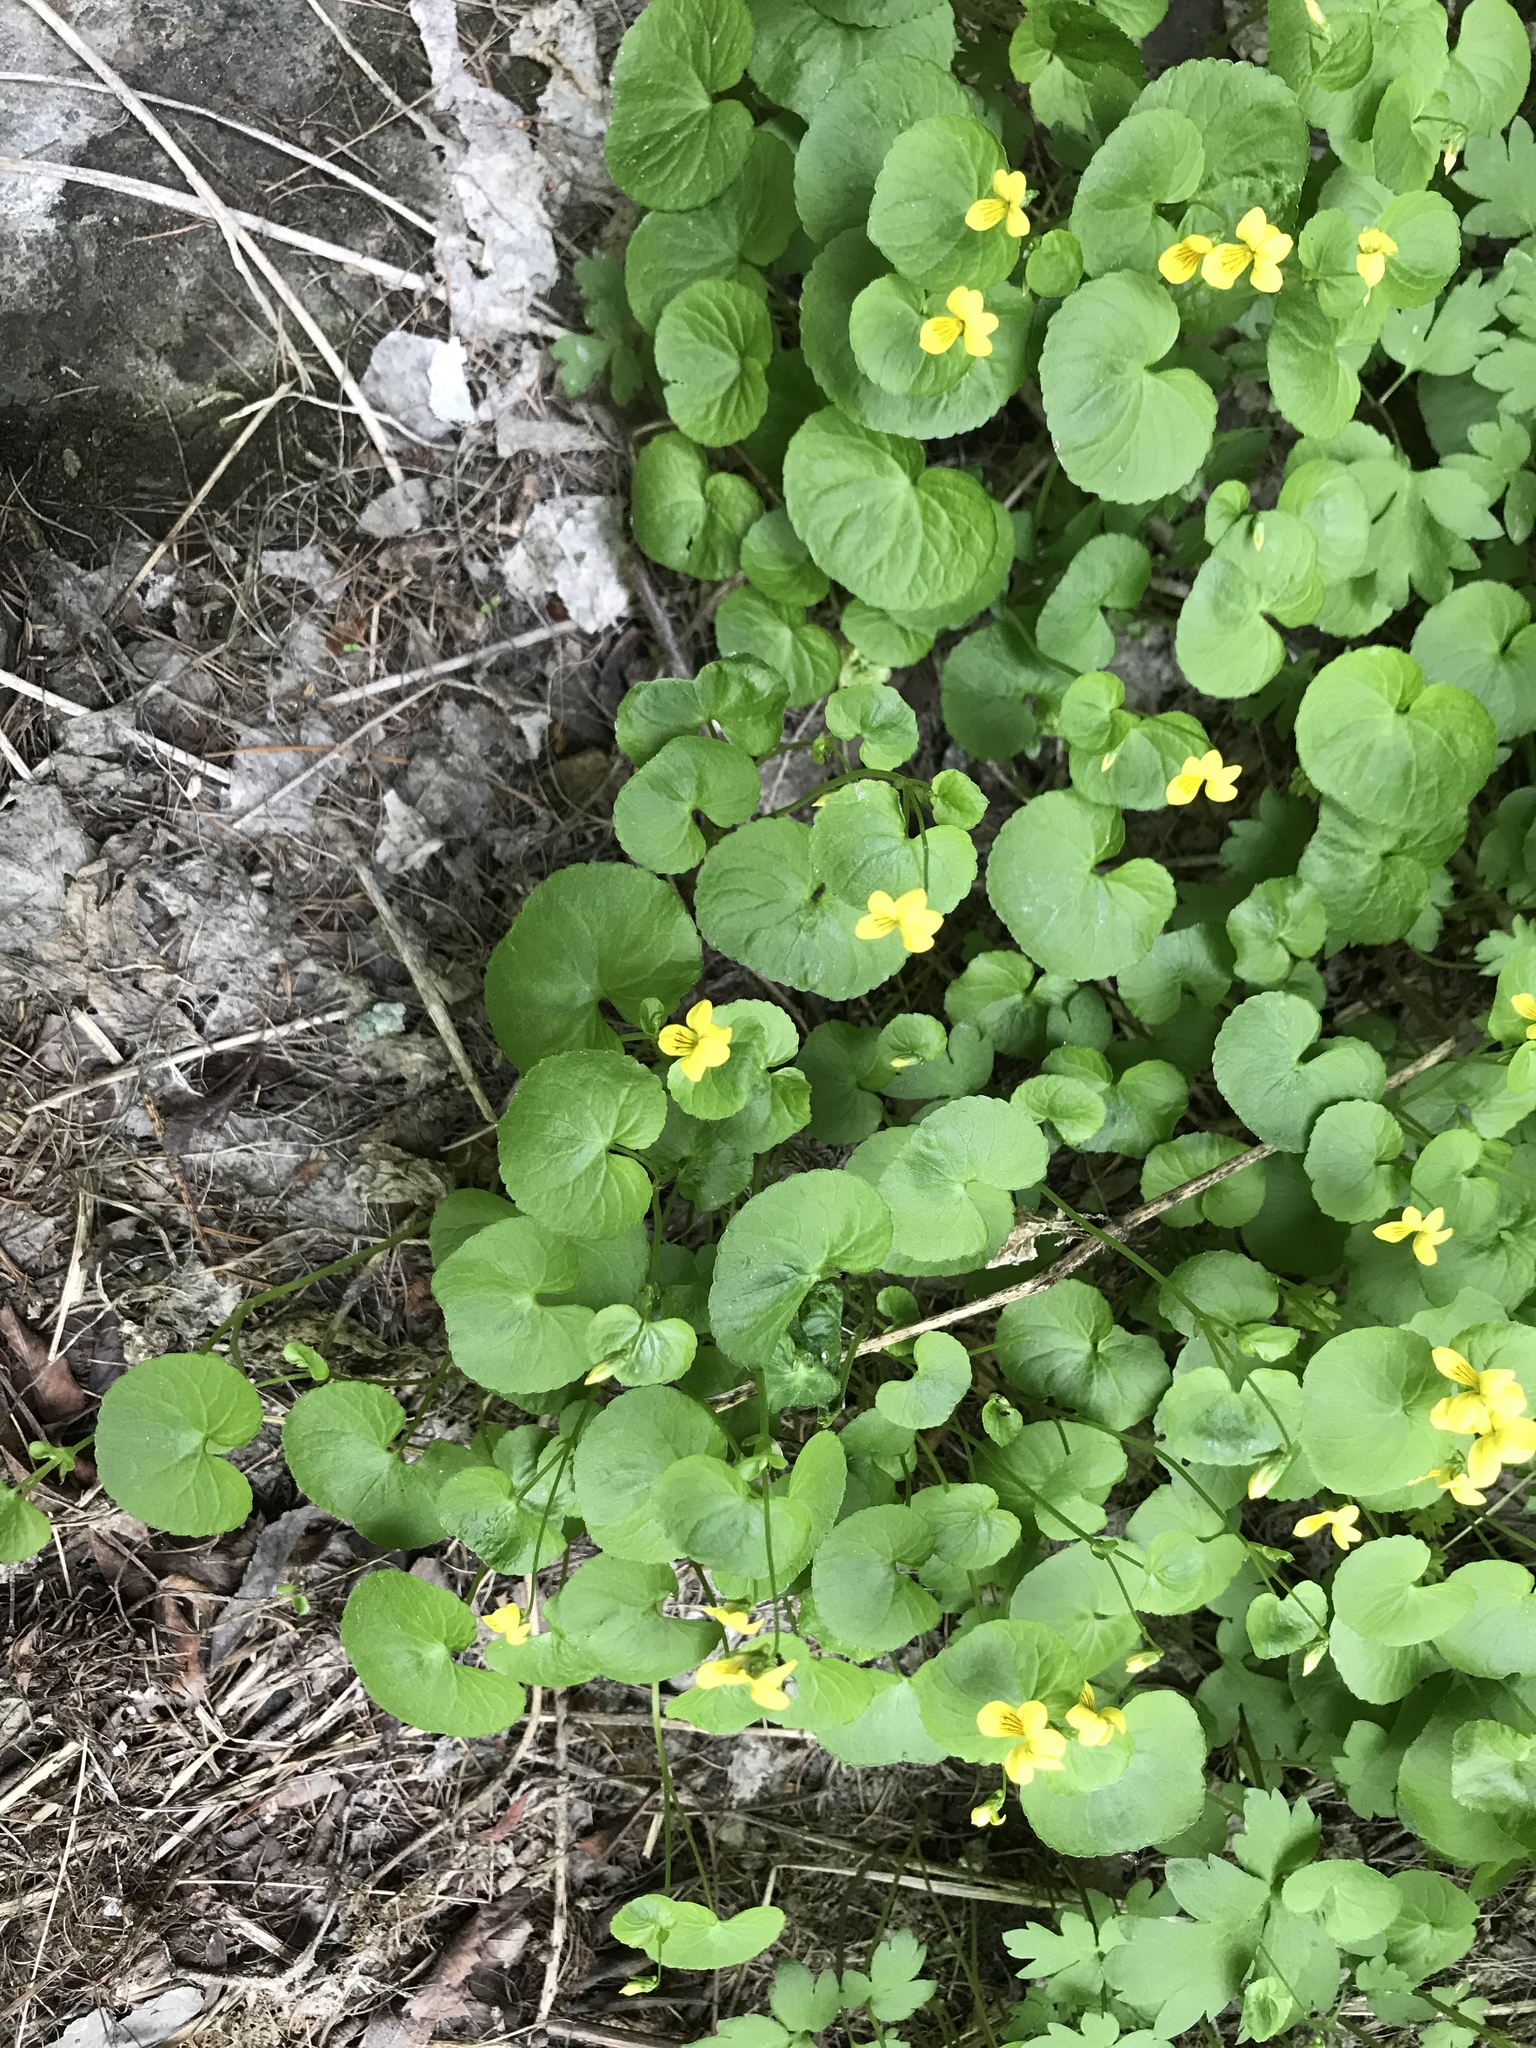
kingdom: Plantae
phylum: Tracheophyta
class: Magnoliopsida
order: Malpighiales
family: Violaceae
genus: Viola
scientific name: Viola biflora
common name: Alpine yellow violet
